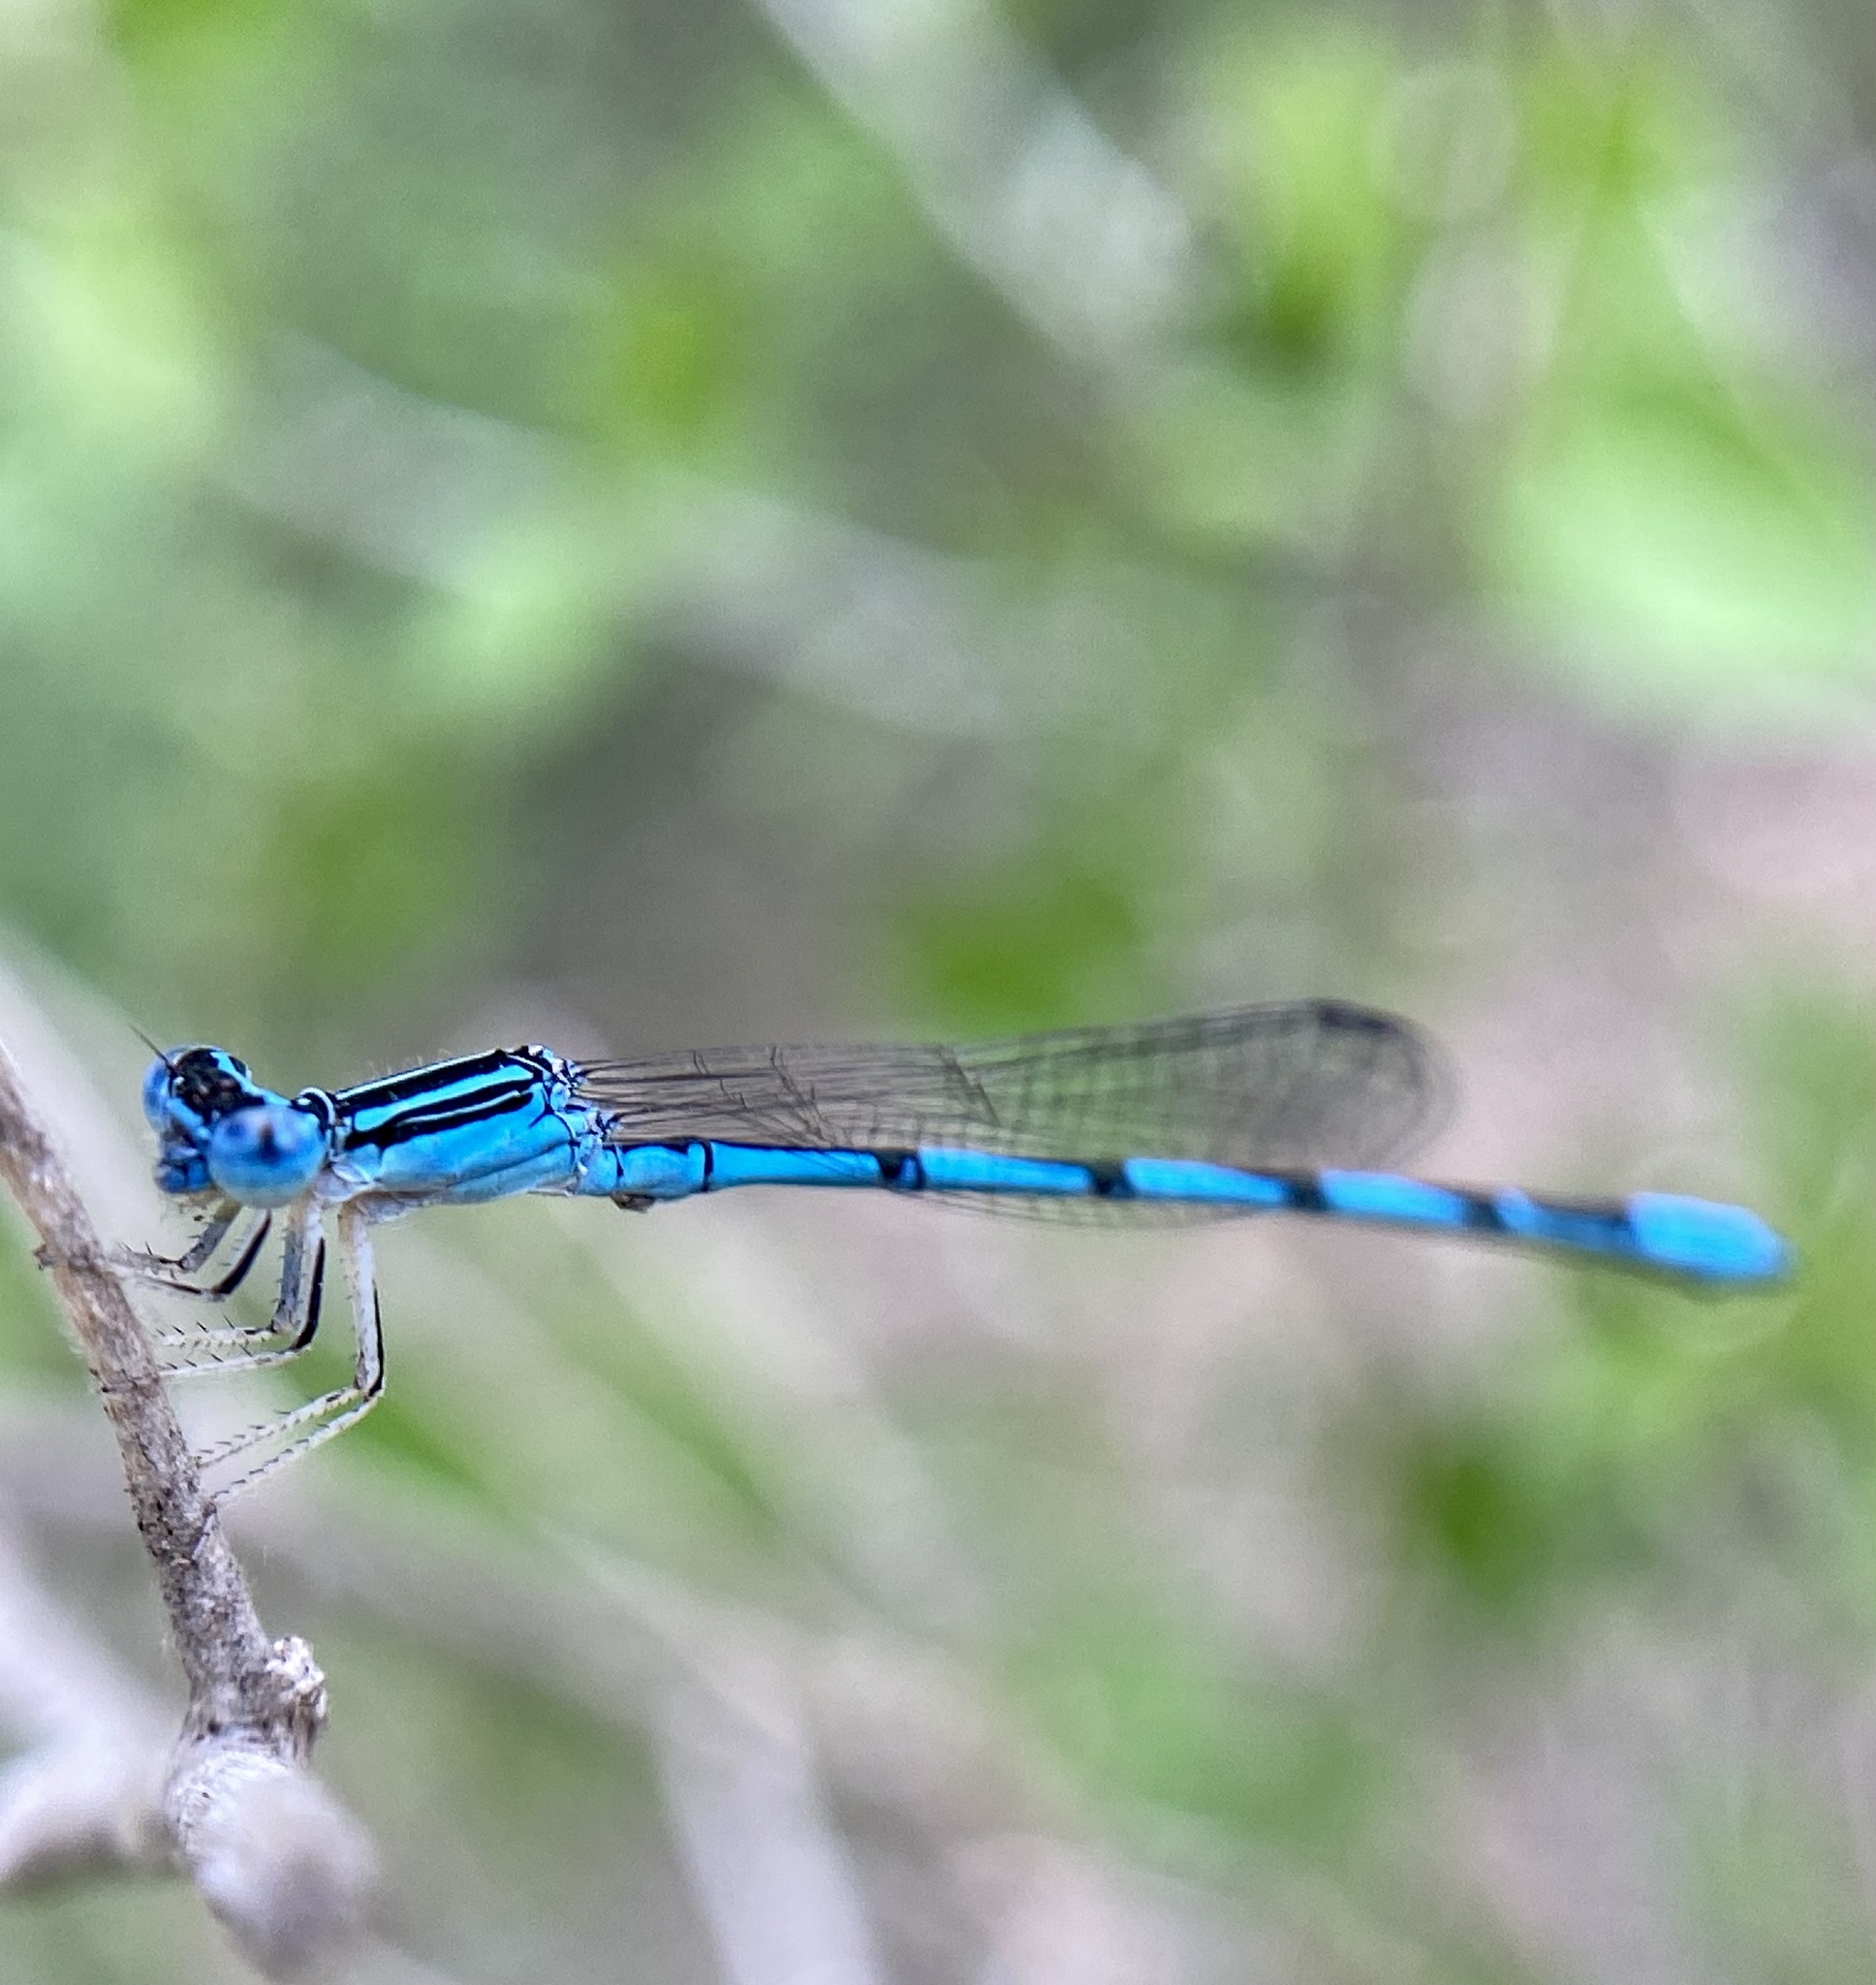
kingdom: Animalia
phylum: Arthropoda
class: Insecta
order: Odonata
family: Coenagrionidae
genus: Enallagma
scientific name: Enallagma basidens
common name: Double-striped bluet
